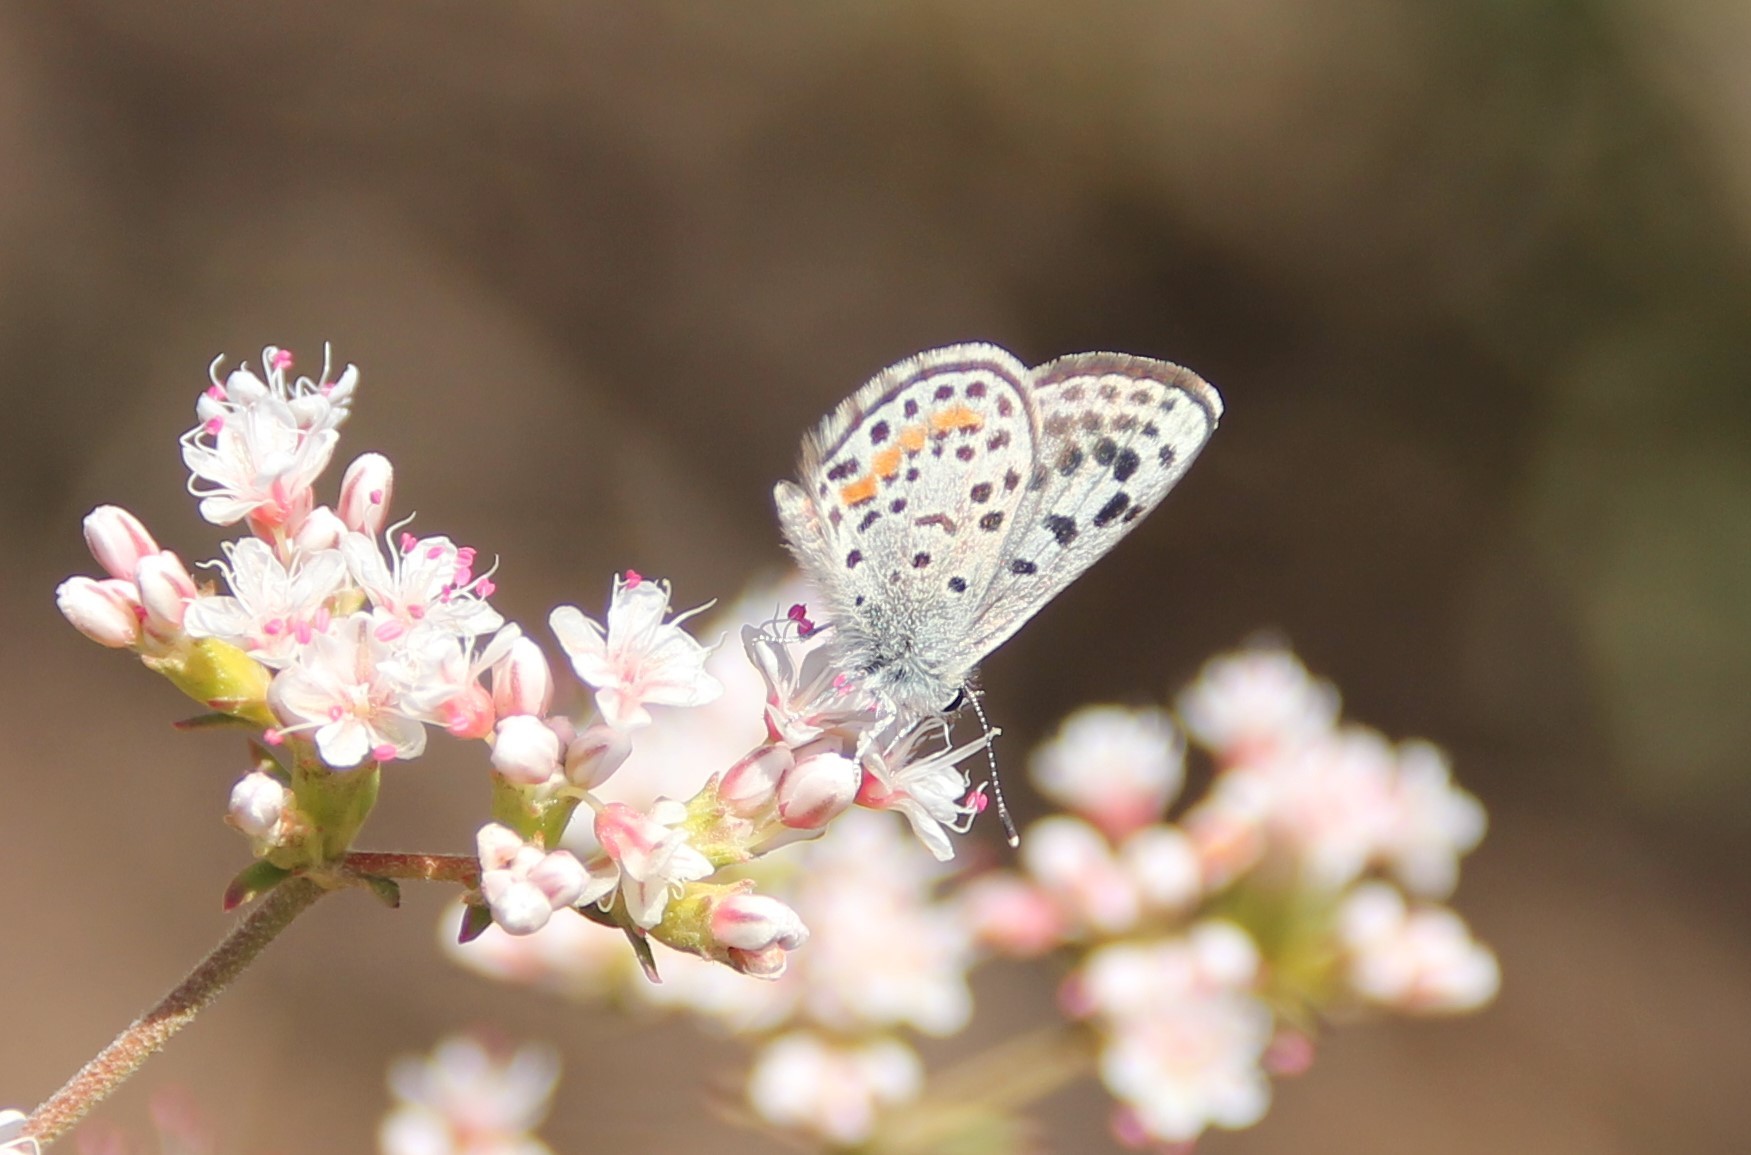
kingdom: Animalia
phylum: Arthropoda
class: Insecta
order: Lepidoptera
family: Lycaenidae
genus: Philotes
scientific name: Philotes bernardino
